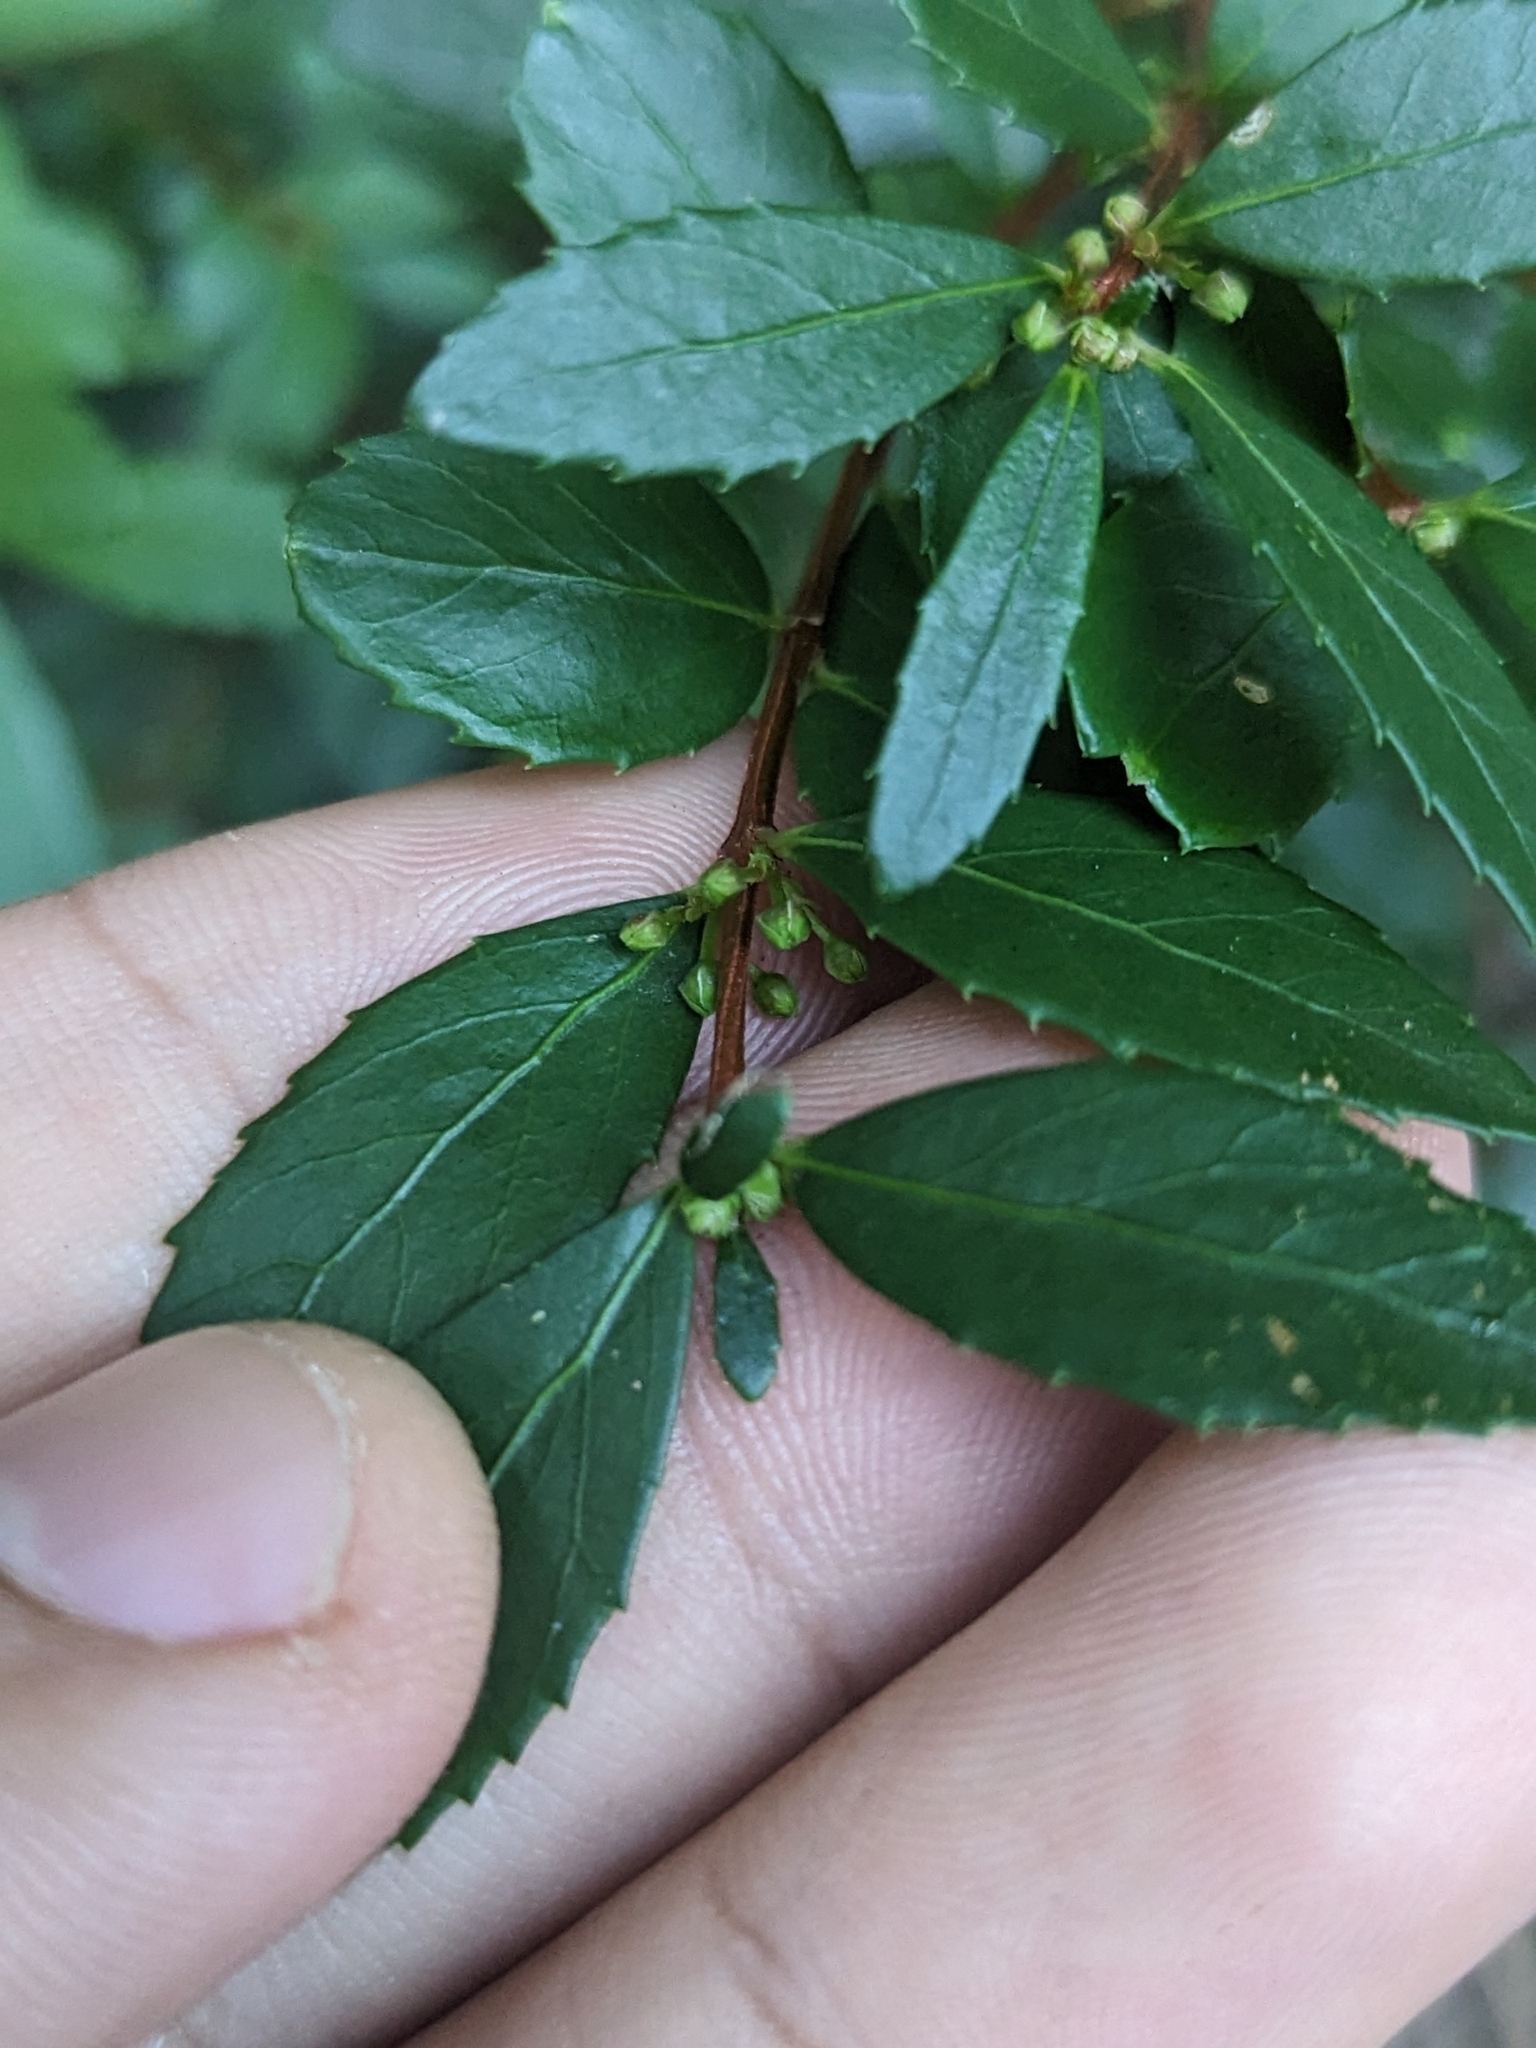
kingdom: Plantae
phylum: Tracheophyta
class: Magnoliopsida
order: Celastrales
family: Celastraceae
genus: Paxistima
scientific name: Paxistima myrsinites
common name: Mountain-lover
